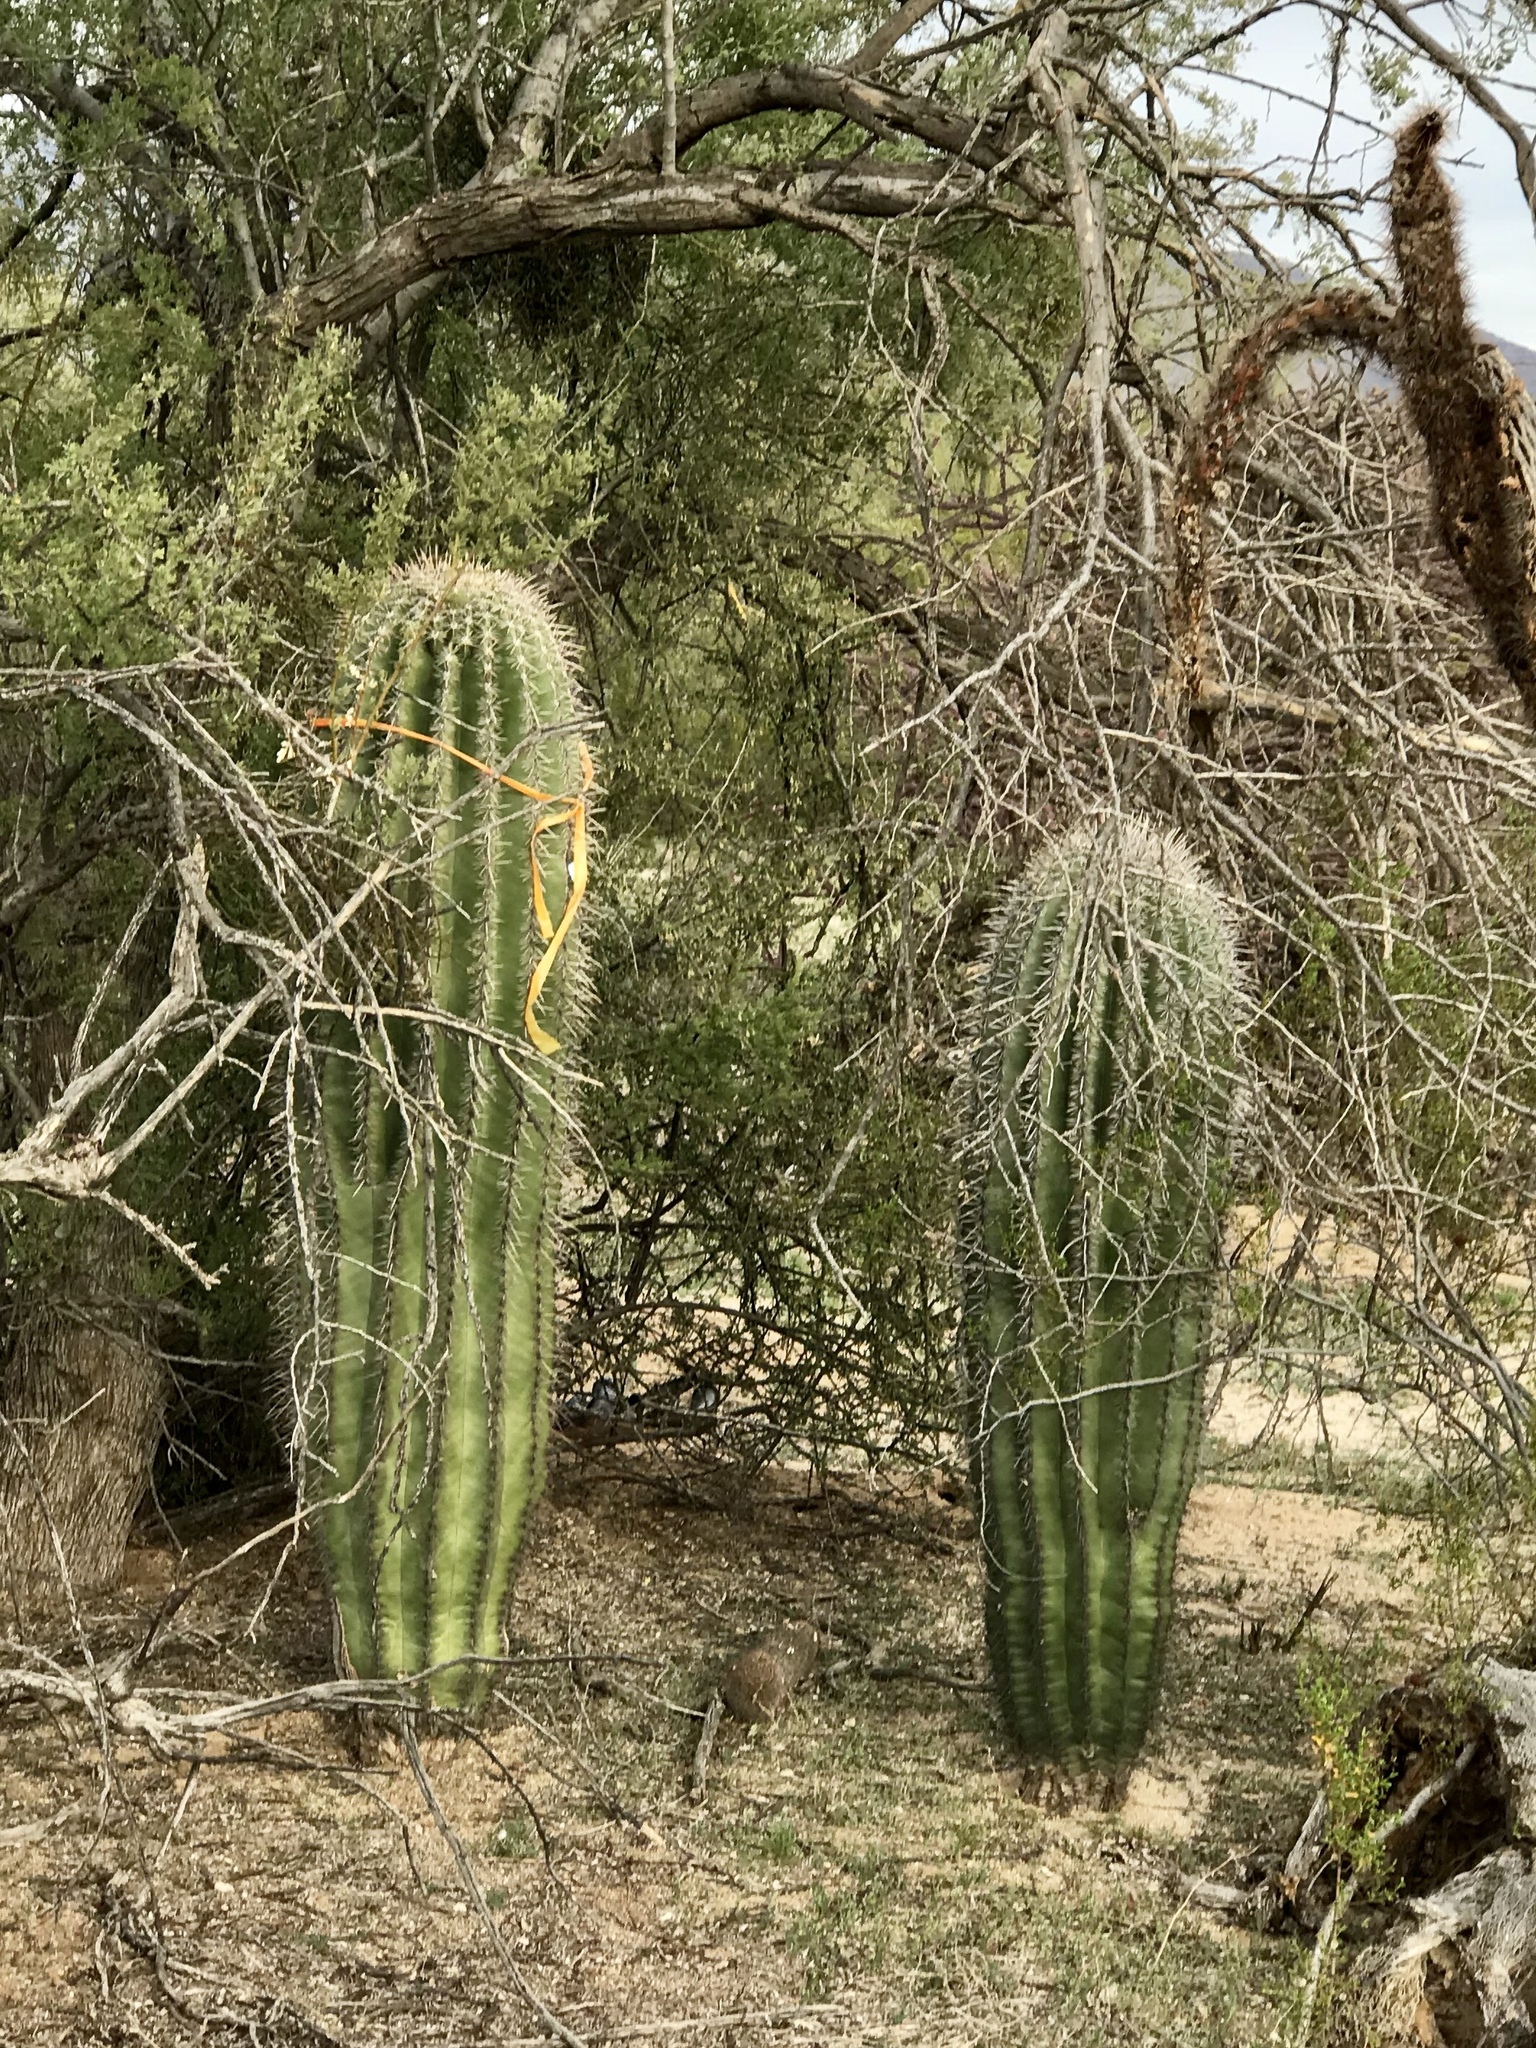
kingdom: Plantae
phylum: Tracheophyta
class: Magnoliopsida
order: Caryophyllales
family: Cactaceae
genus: Carnegiea
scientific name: Carnegiea gigantea
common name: Saguaro
